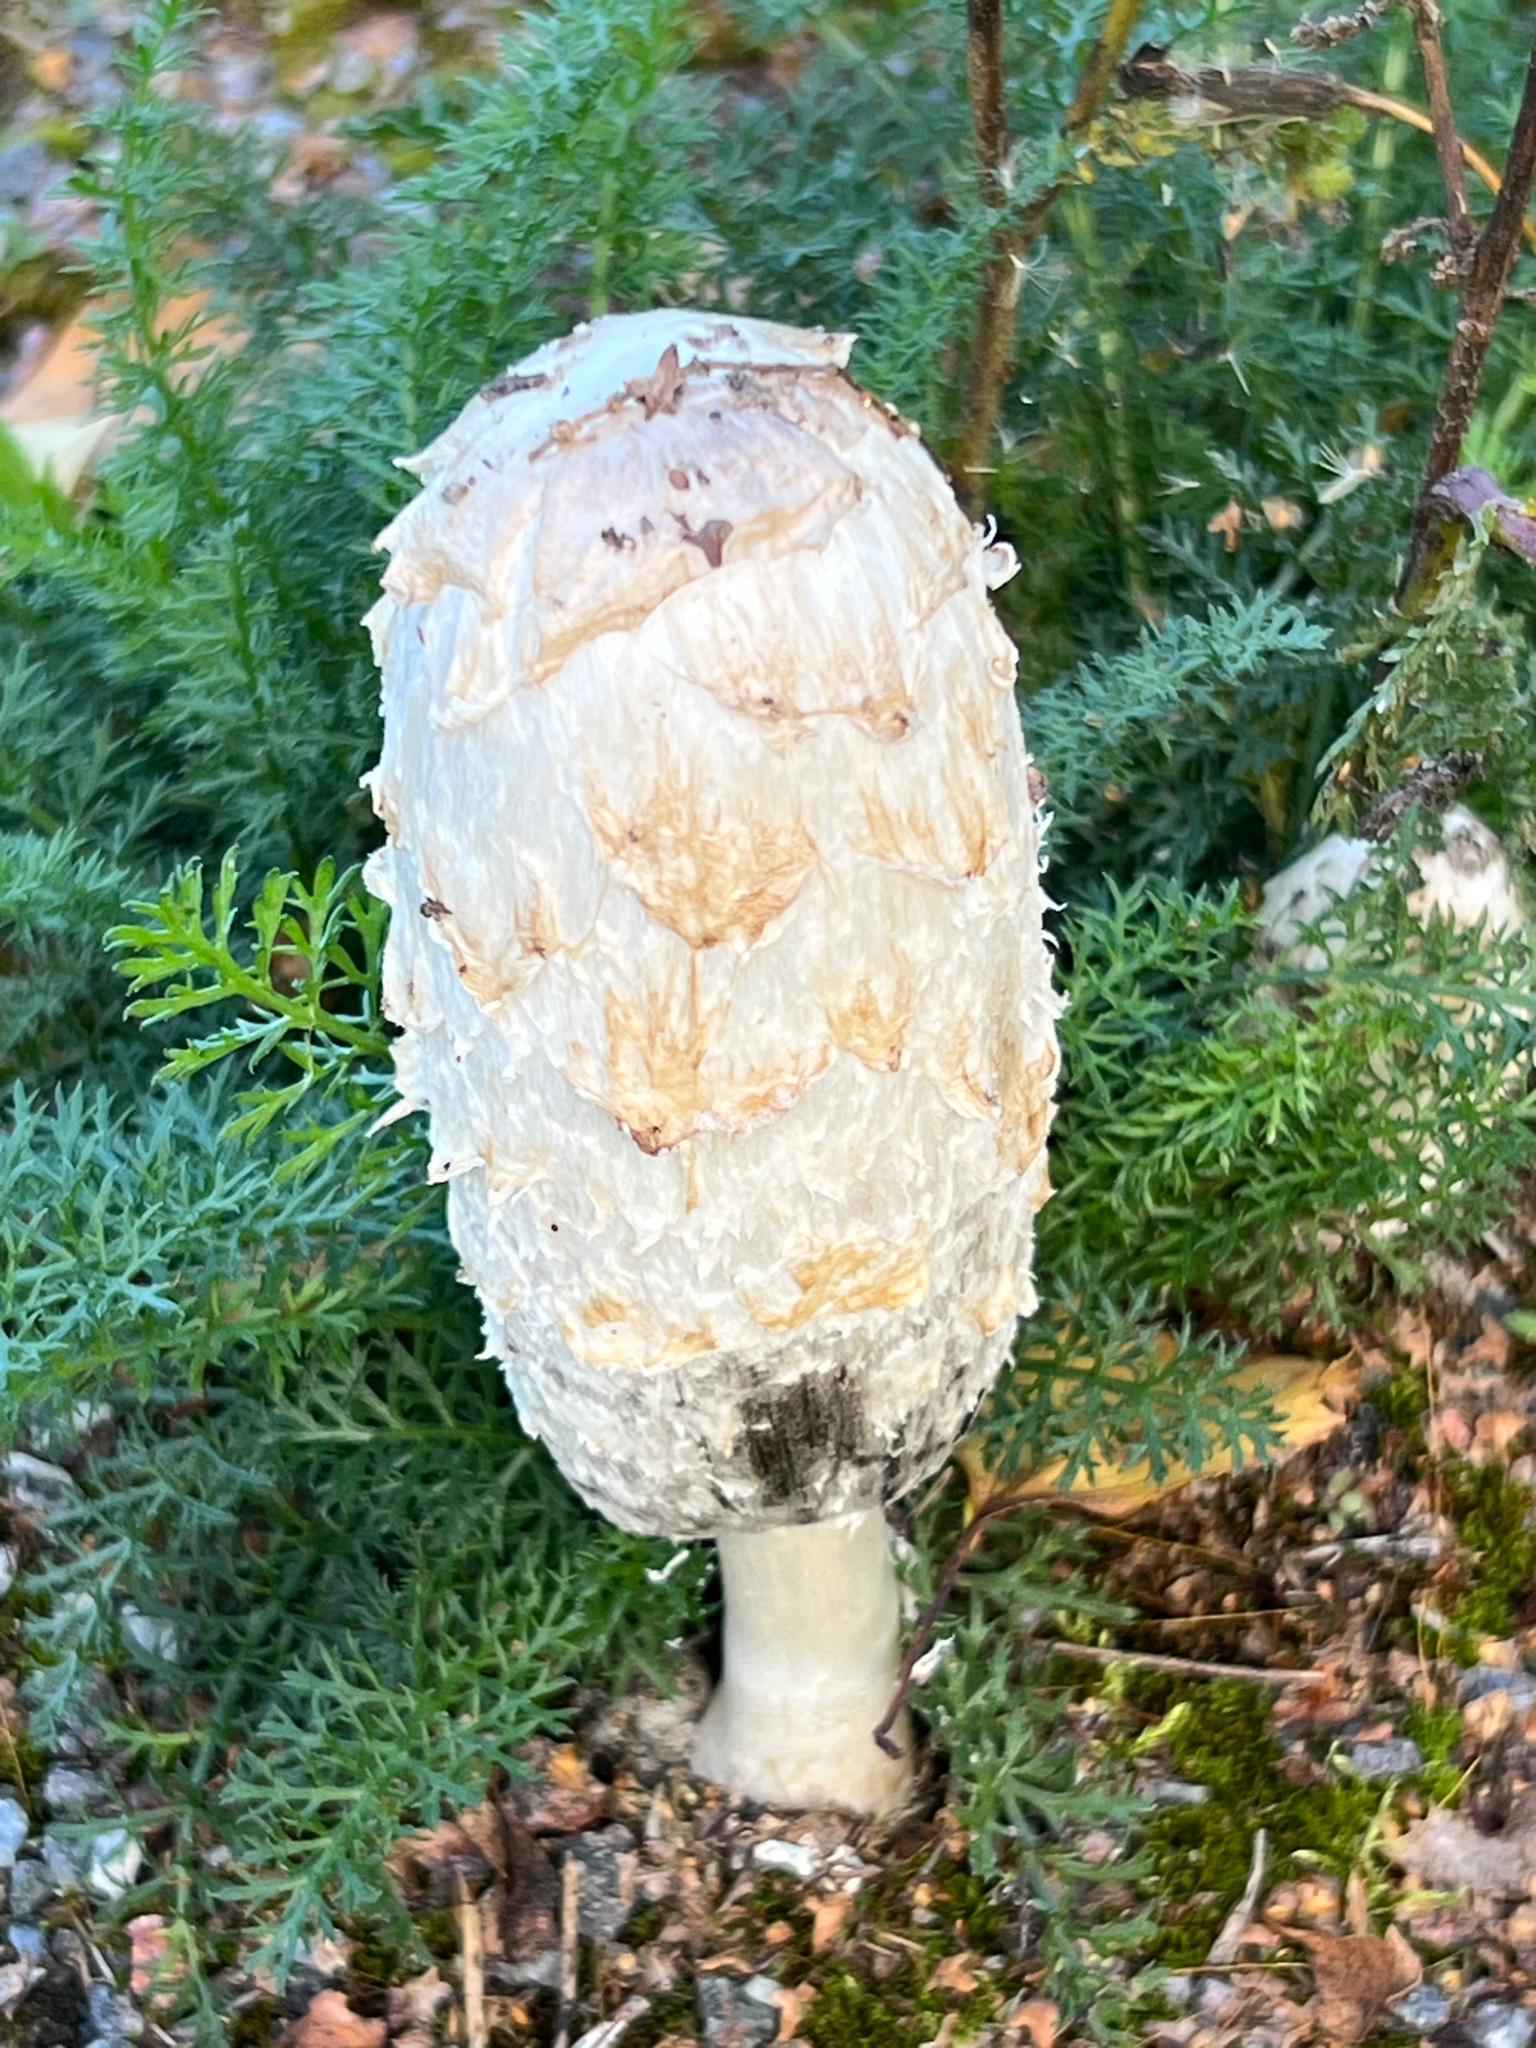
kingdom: Fungi
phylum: Basidiomycota
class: Agaricomycetes
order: Agaricales
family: Agaricaceae
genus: Coprinus
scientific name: Coprinus comatus
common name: Lawyer's wig
